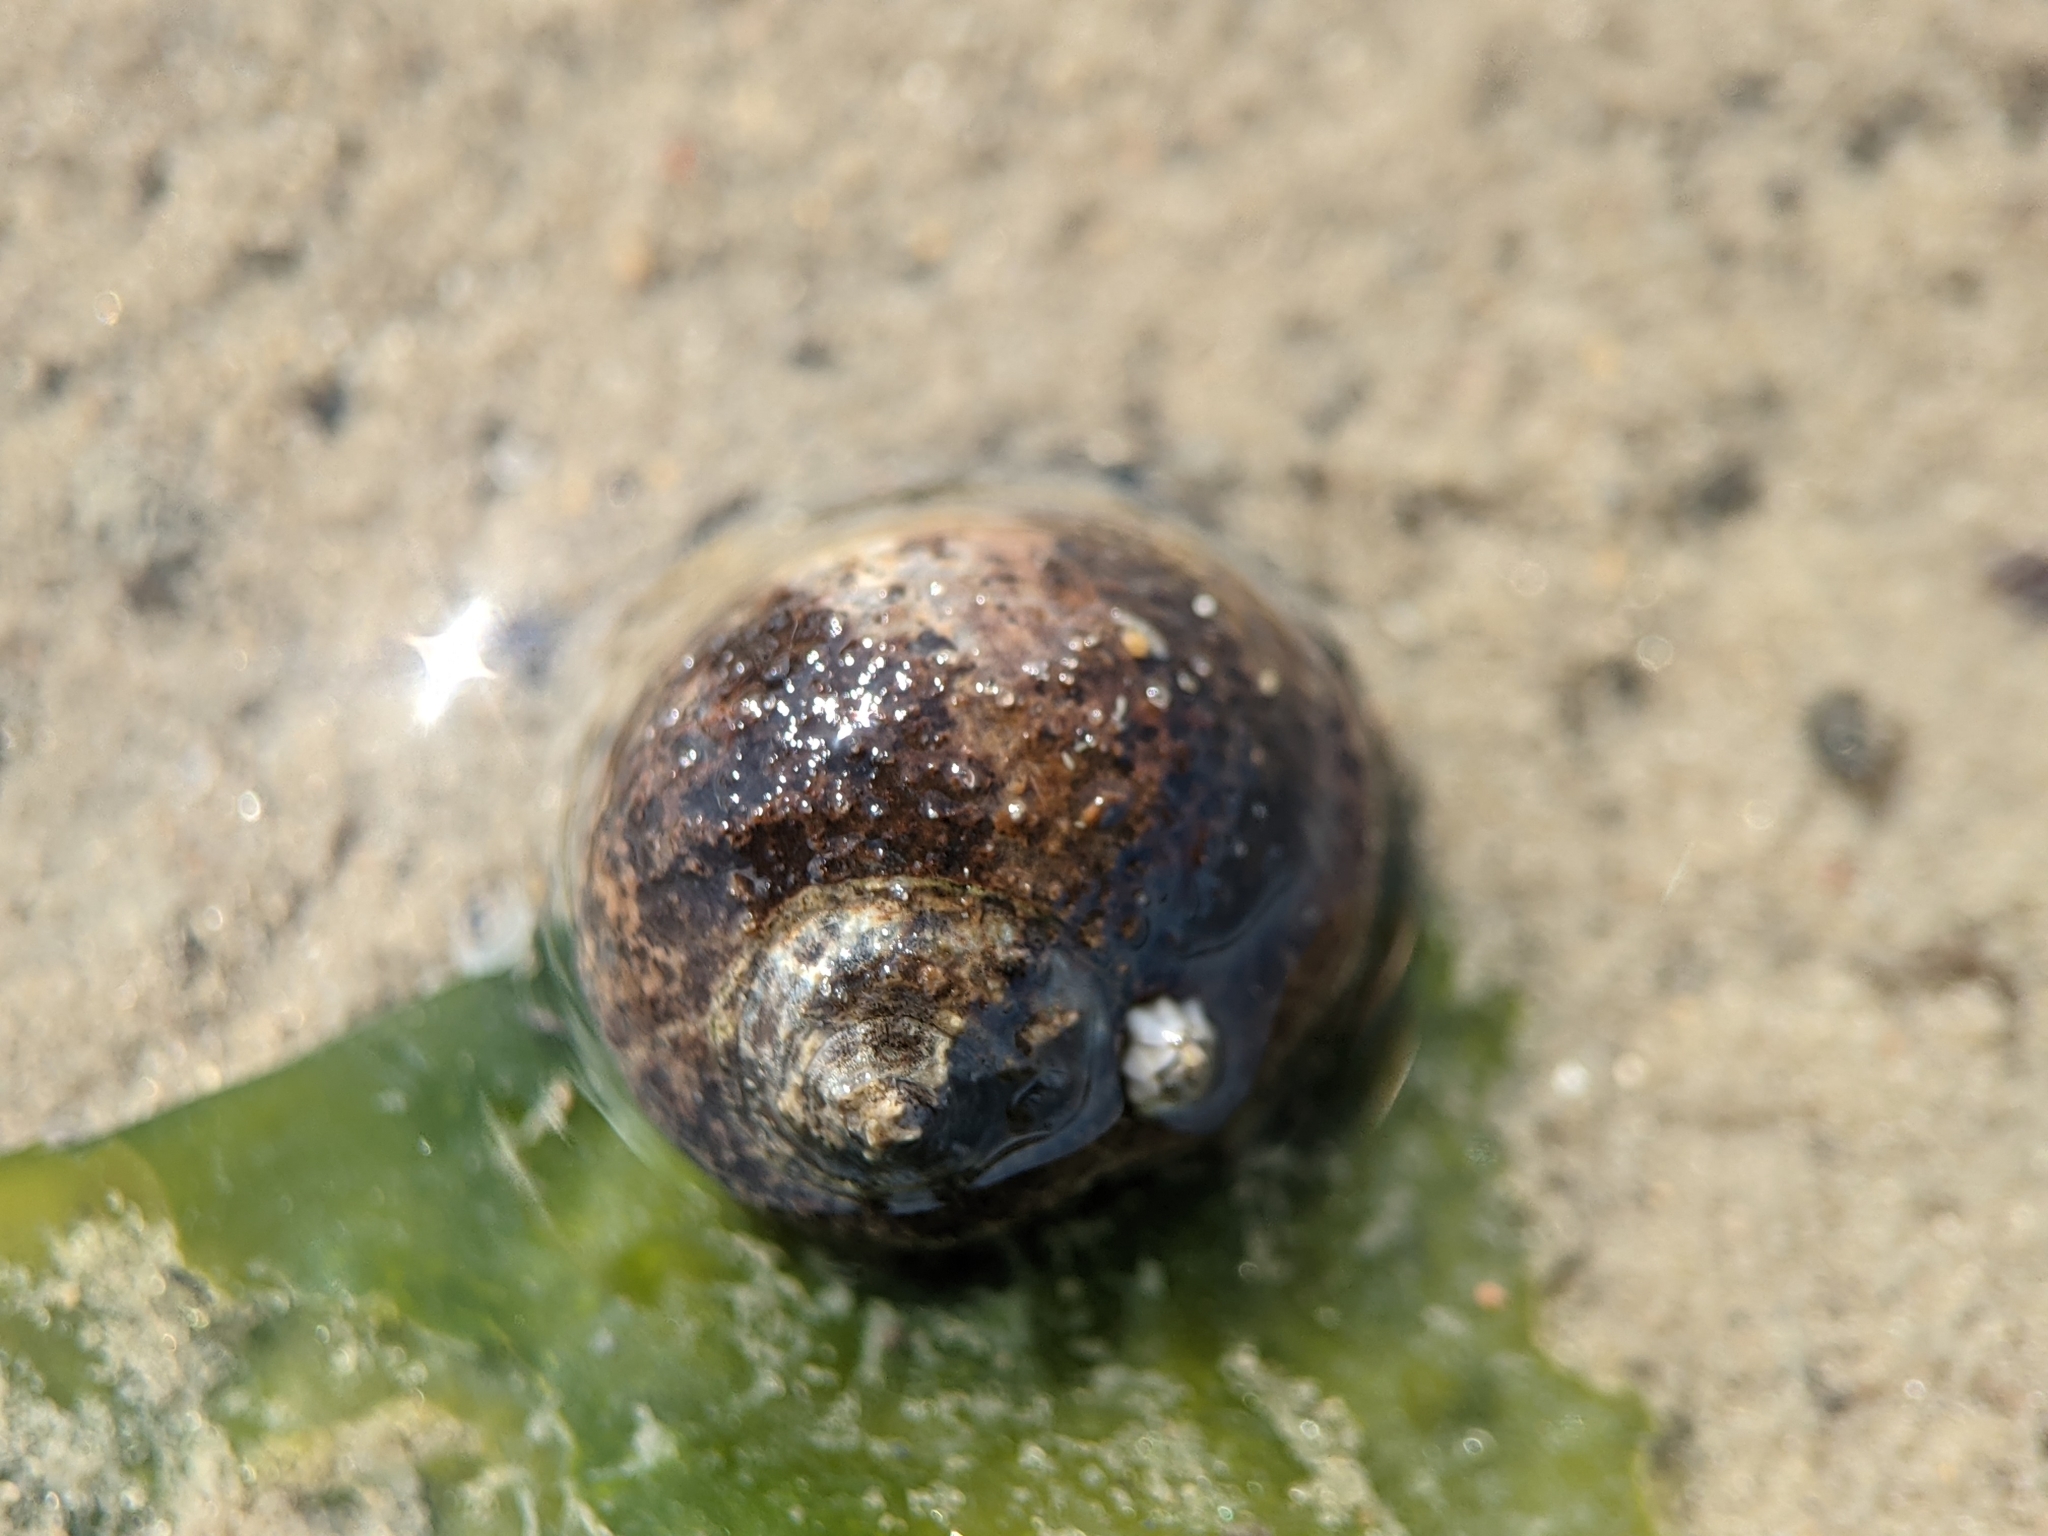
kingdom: Animalia
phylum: Mollusca
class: Gastropoda
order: Littorinimorpha
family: Littorinidae
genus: Littorina
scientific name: Littorina littorea
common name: Common periwinkle
